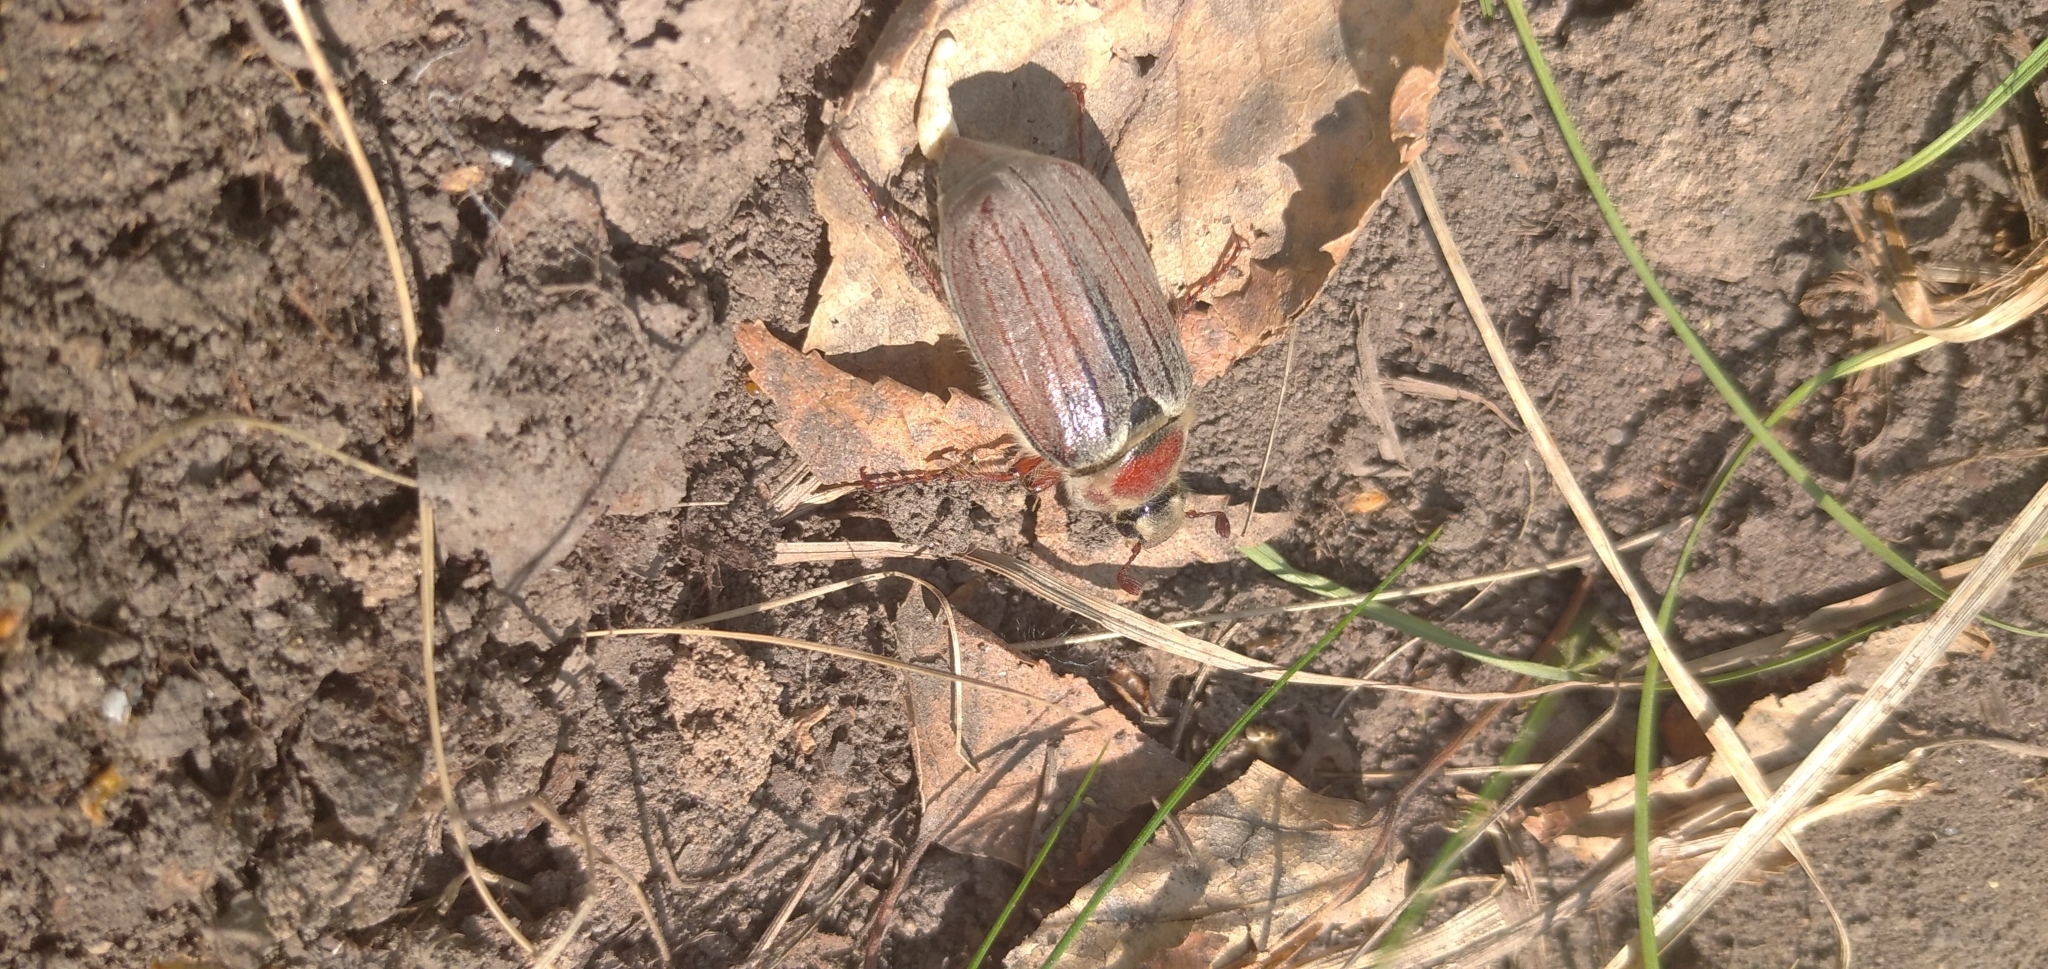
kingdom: Animalia
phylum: Arthropoda
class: Insecta
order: Coleoptera
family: Scarabaeidae
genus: Melolontha
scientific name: Melolontha hippocastani
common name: Chestnut cockchafer
